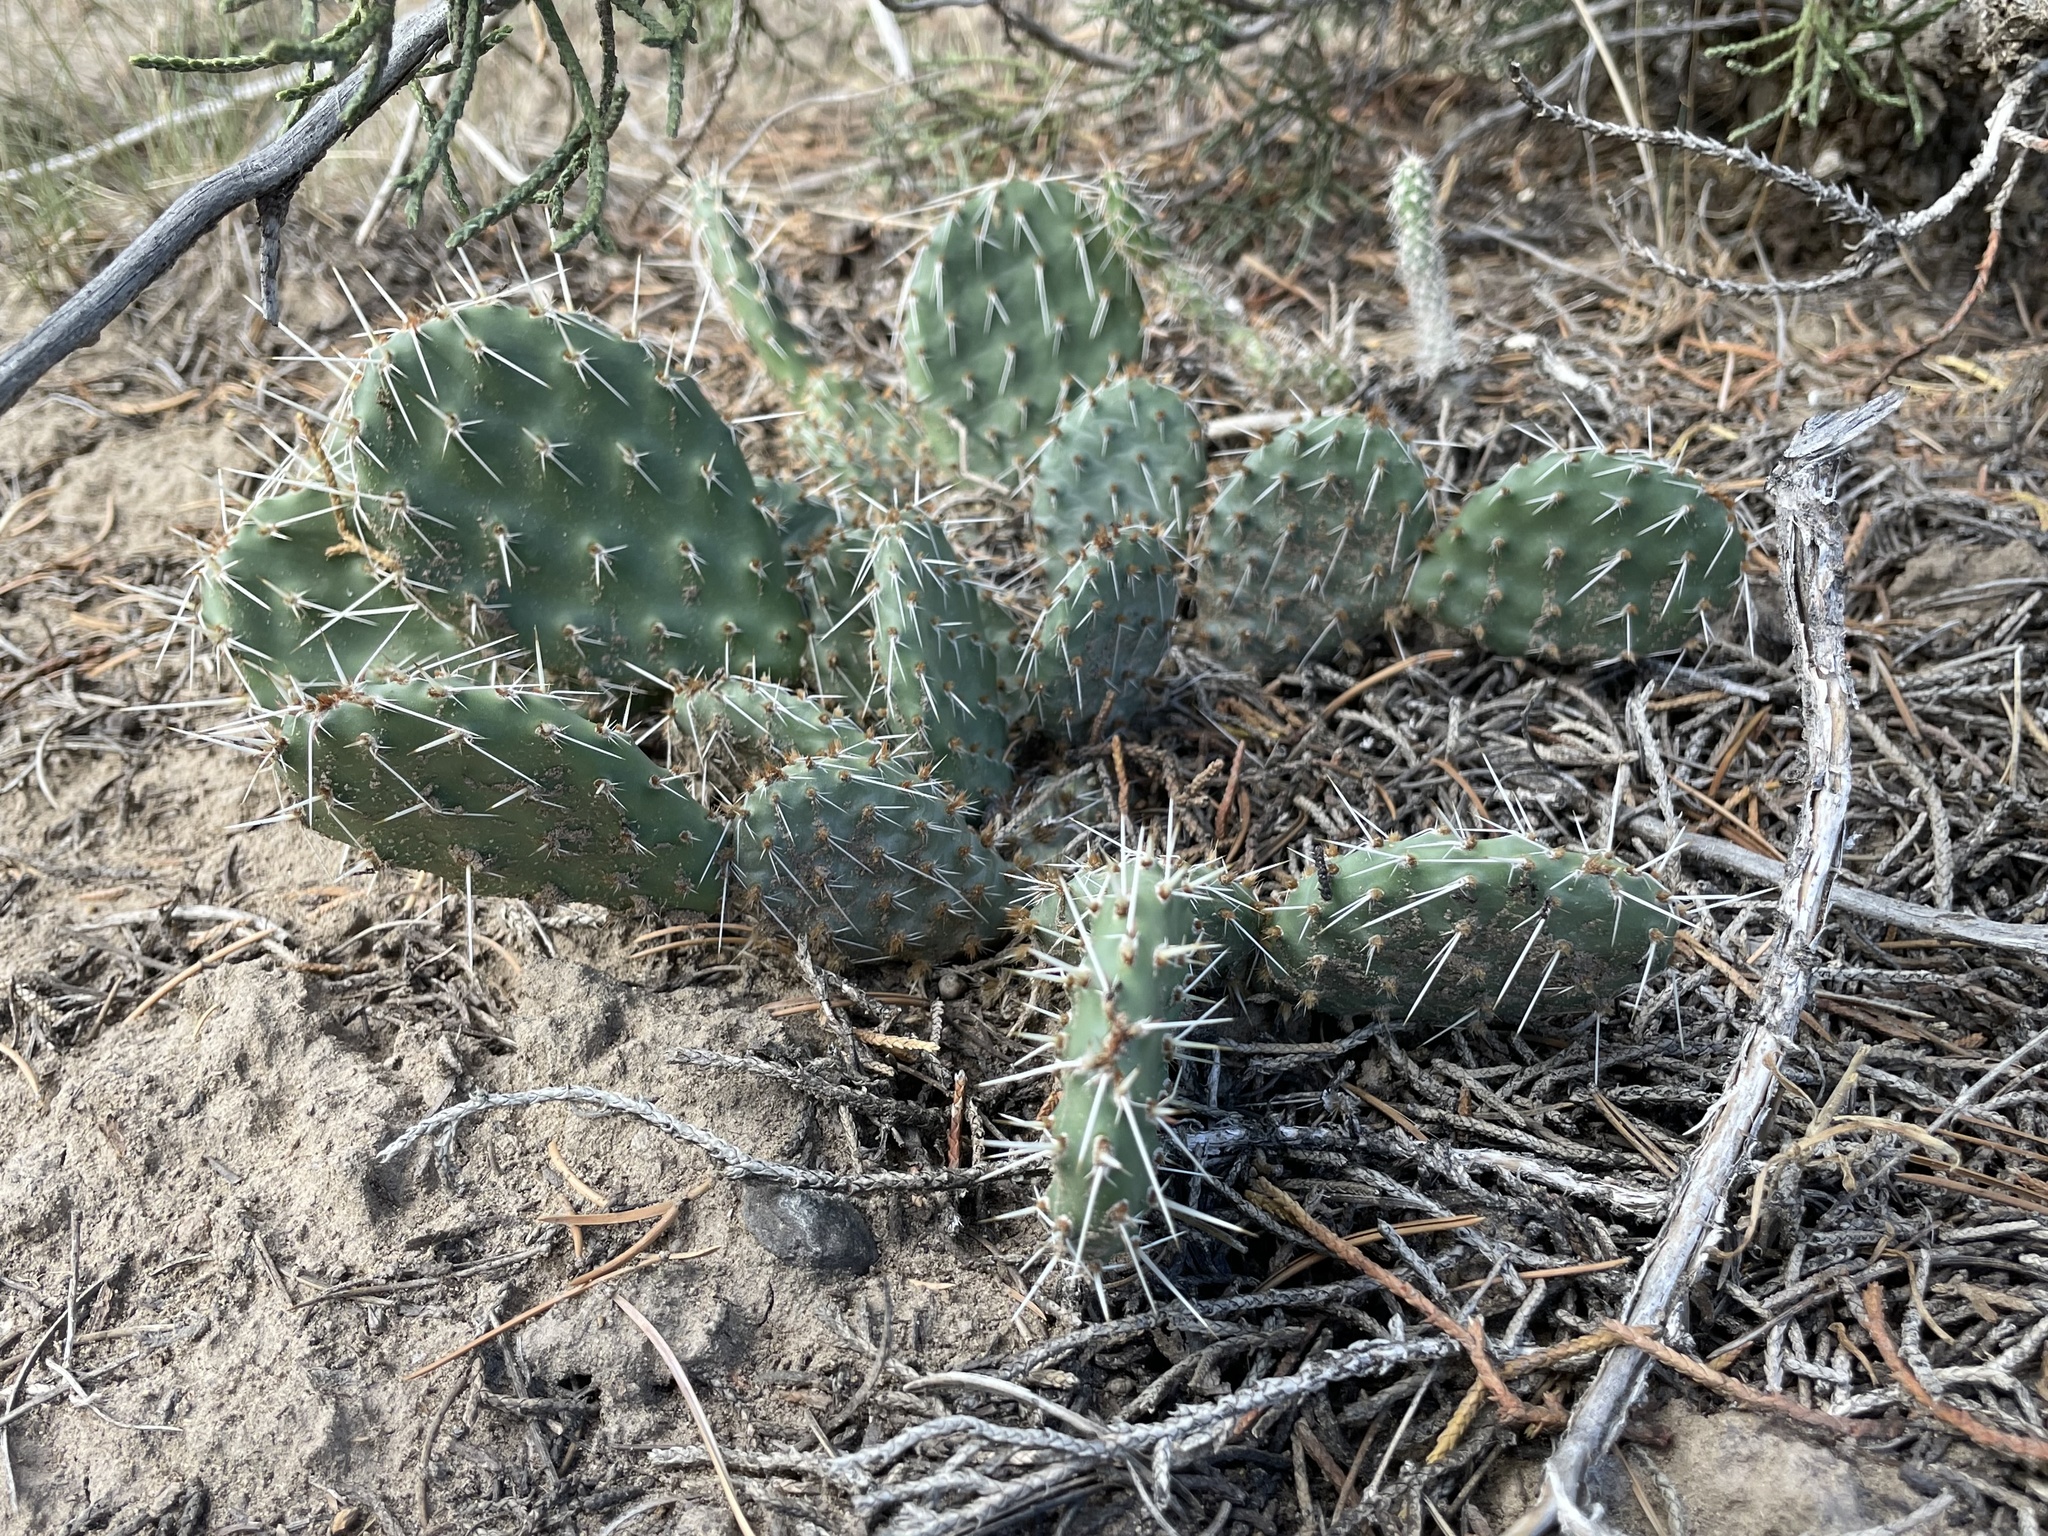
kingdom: Plantae
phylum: Tracheophyta
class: Magnoliopsida
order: Caryophyllales
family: Cactaceae
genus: Opuntia
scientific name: Opuntia polyacantha
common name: Plains prickly-pear
